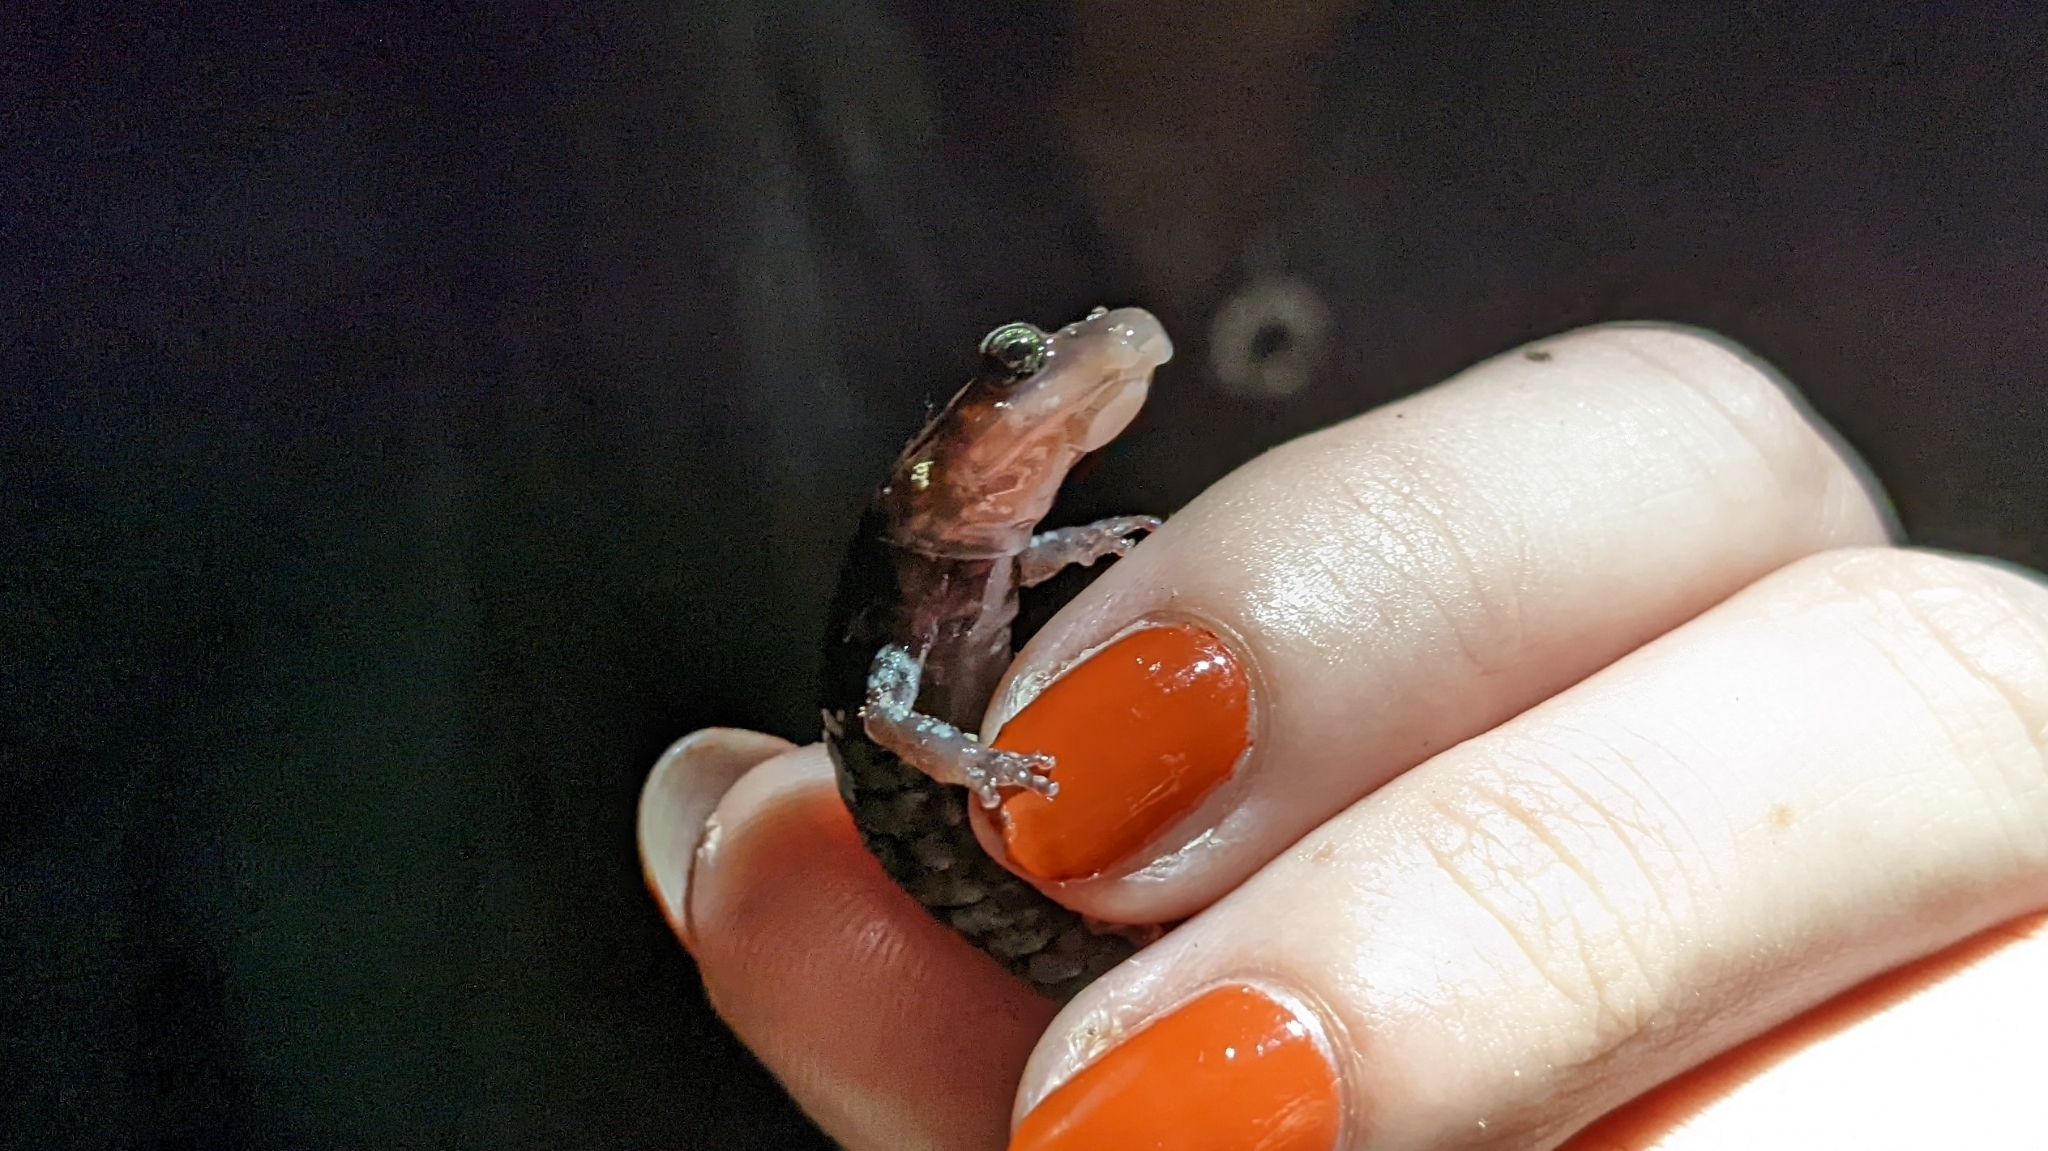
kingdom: Animalia
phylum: Chordata
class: Amphibia
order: Caudata
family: Plethodontidae
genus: Plethodon
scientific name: Plethodon ouachitae
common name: Rich mountain salamander
